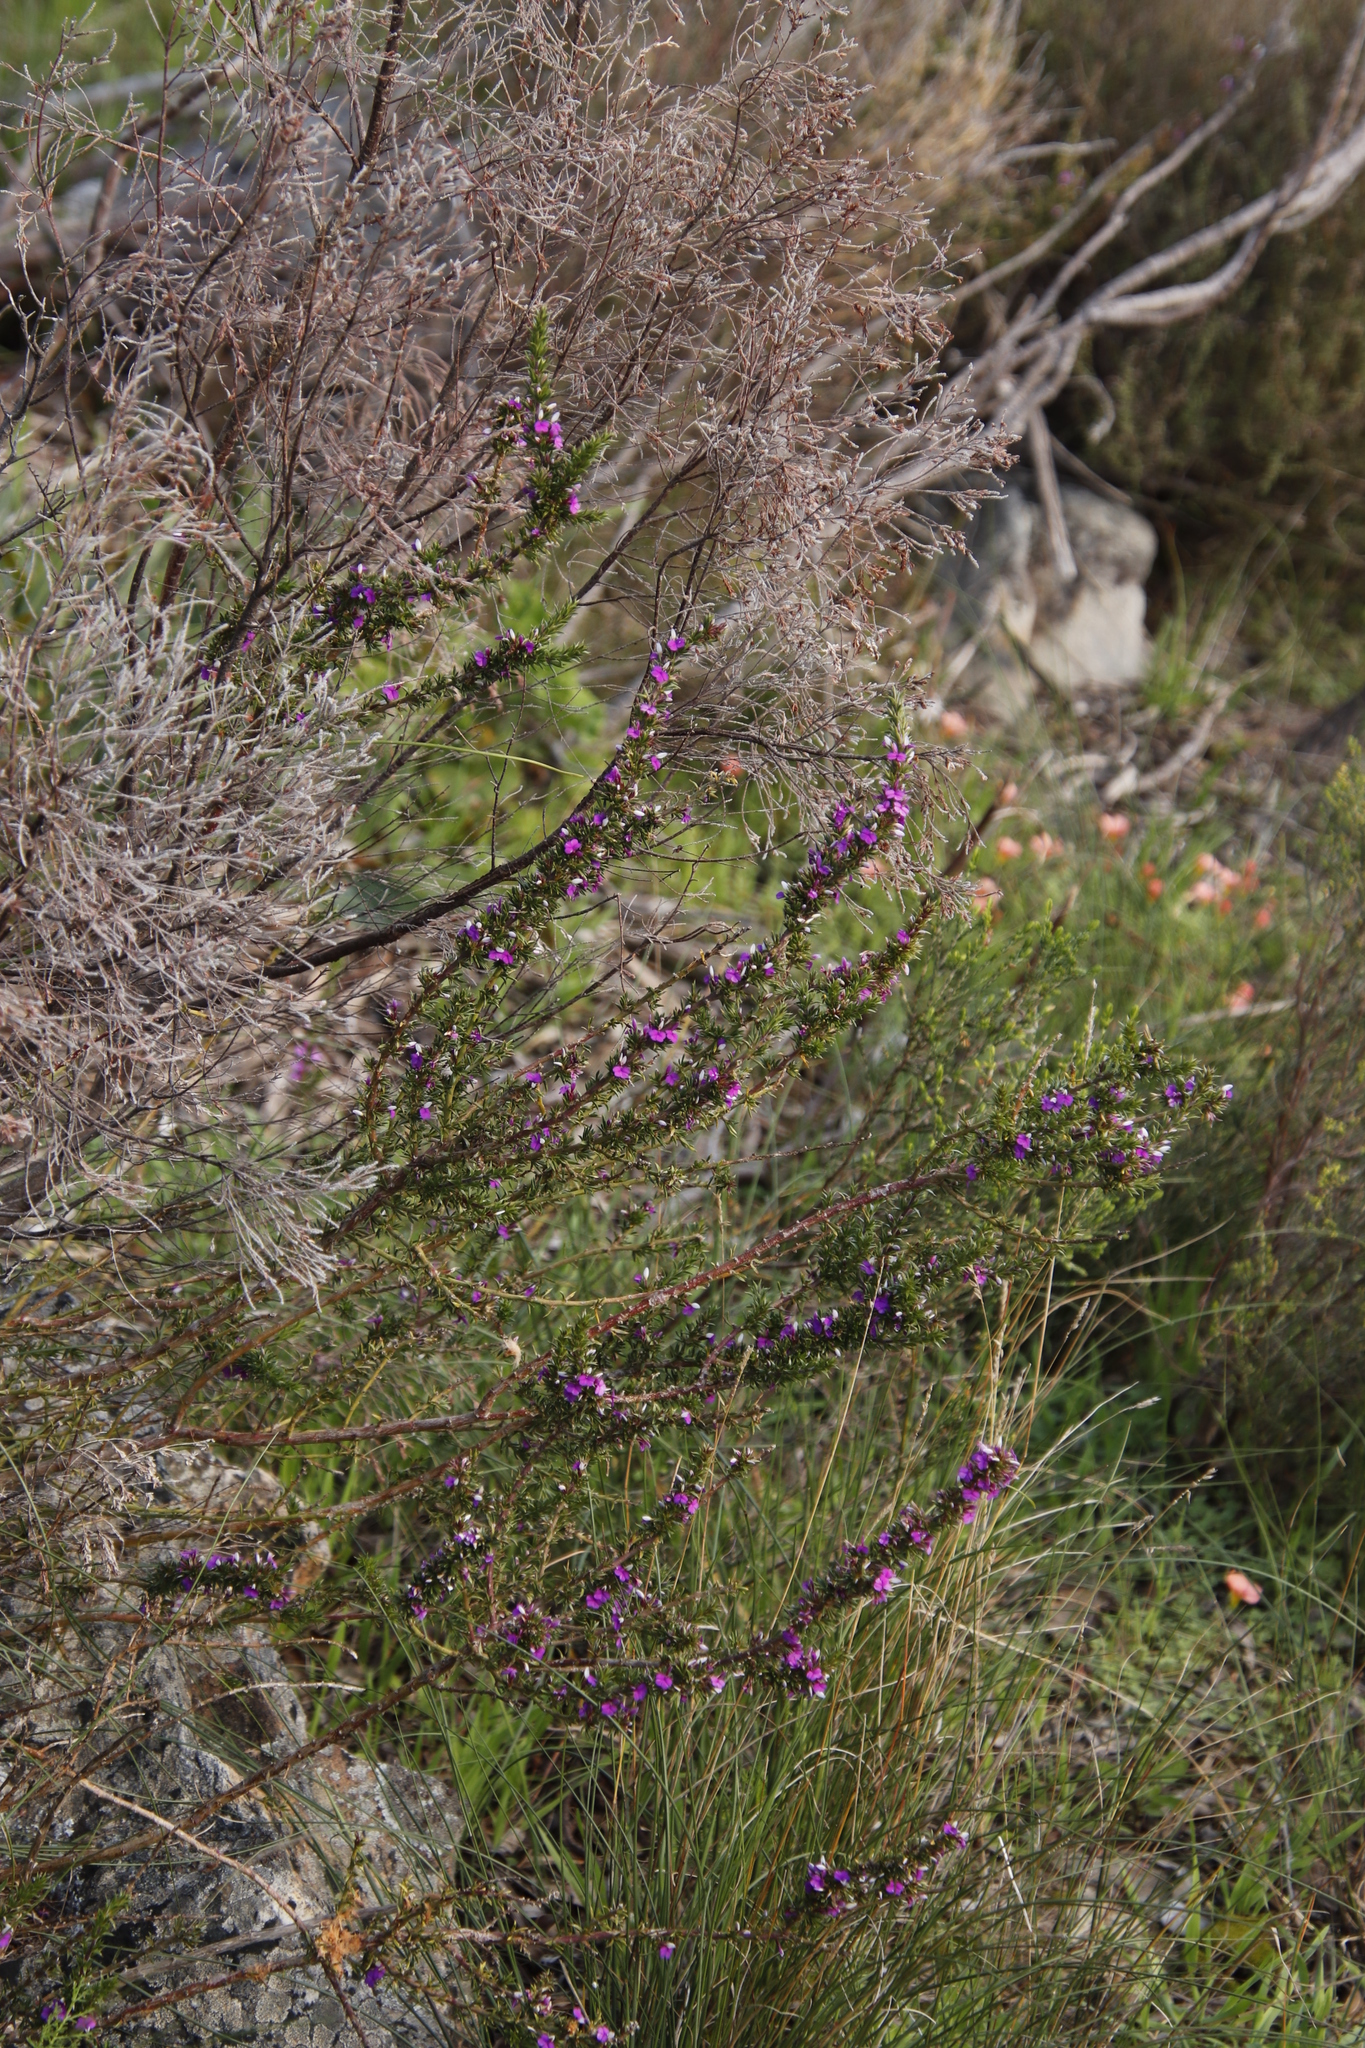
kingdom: Plantae
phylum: Tracheophyta
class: Magnoliopsida
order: Fabales
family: Polygalaceae
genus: Muraltia
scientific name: Muraltia heisteria
